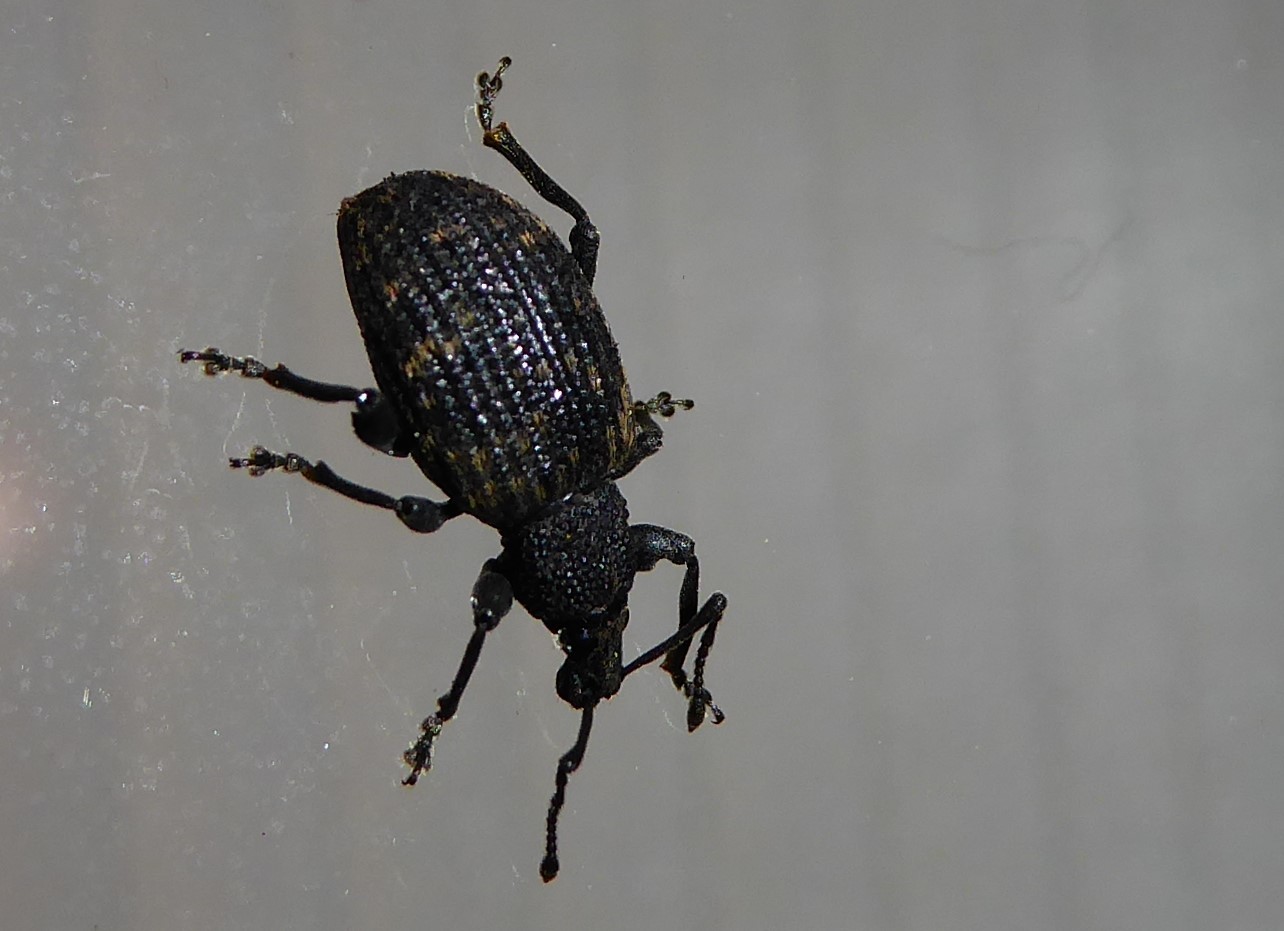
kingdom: Animalia
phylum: Arthropoda
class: Insecta
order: Coleoptera
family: Curculionidae
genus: Otiorhynchus
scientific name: Otiorhynchus sulcatus
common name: Black vine weevil
